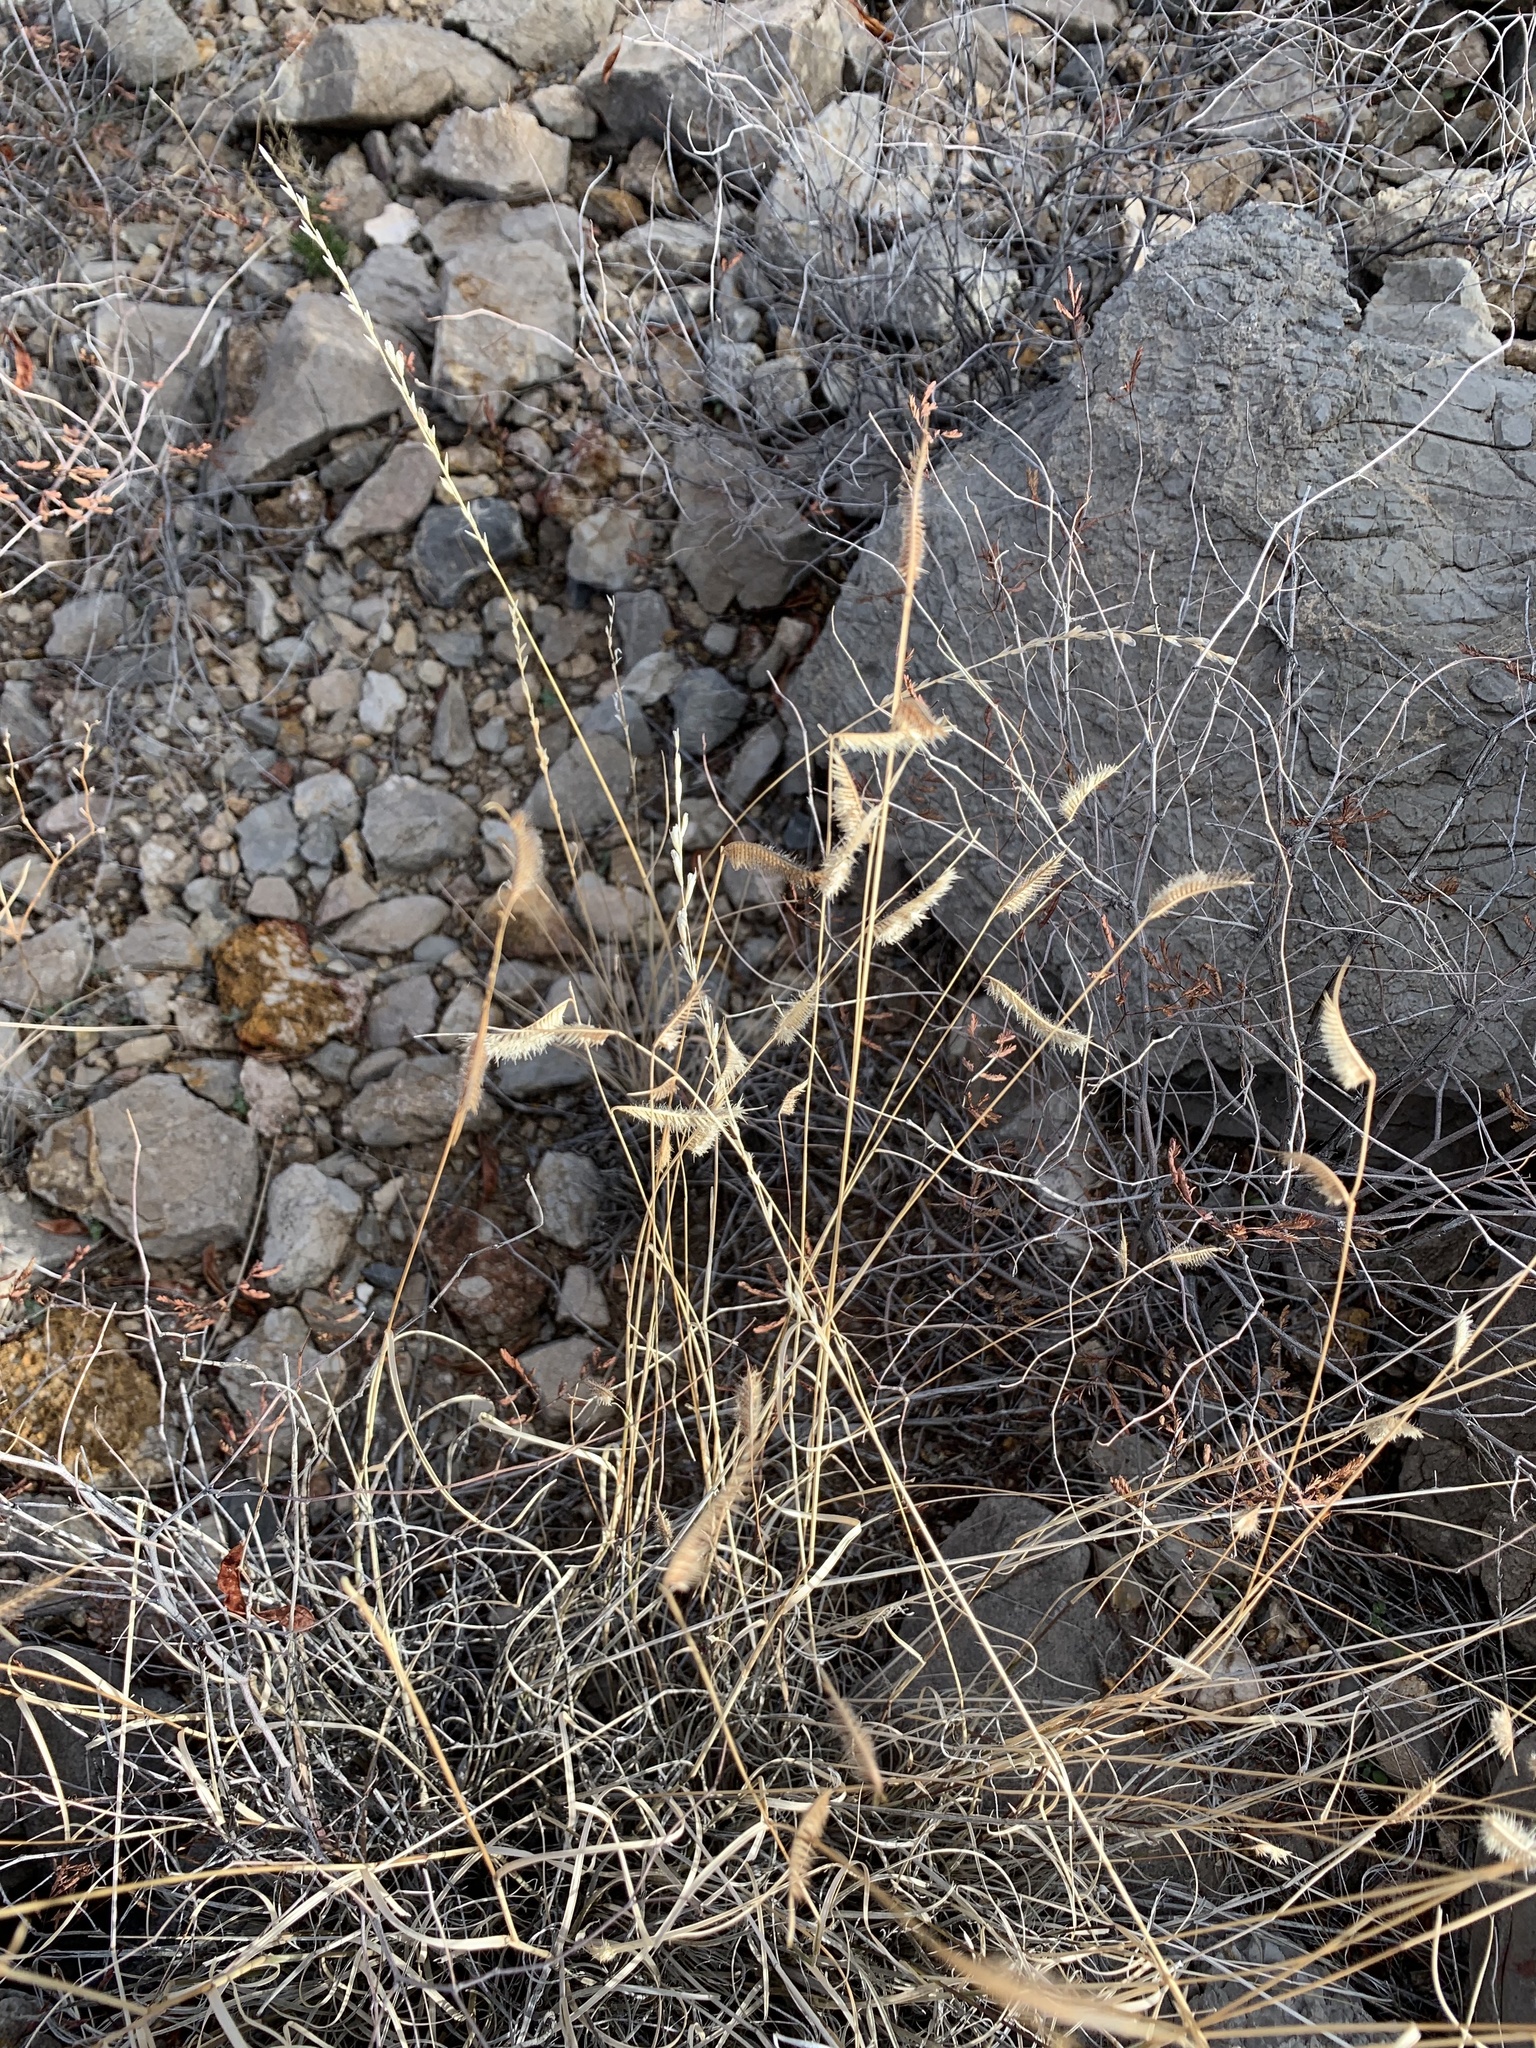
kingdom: Plantae
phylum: Tracheophyta
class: Liliopsida
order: Poales
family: Poaceae
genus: Bouteloua
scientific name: Bouteloua hirsuta
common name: Hairy grama
